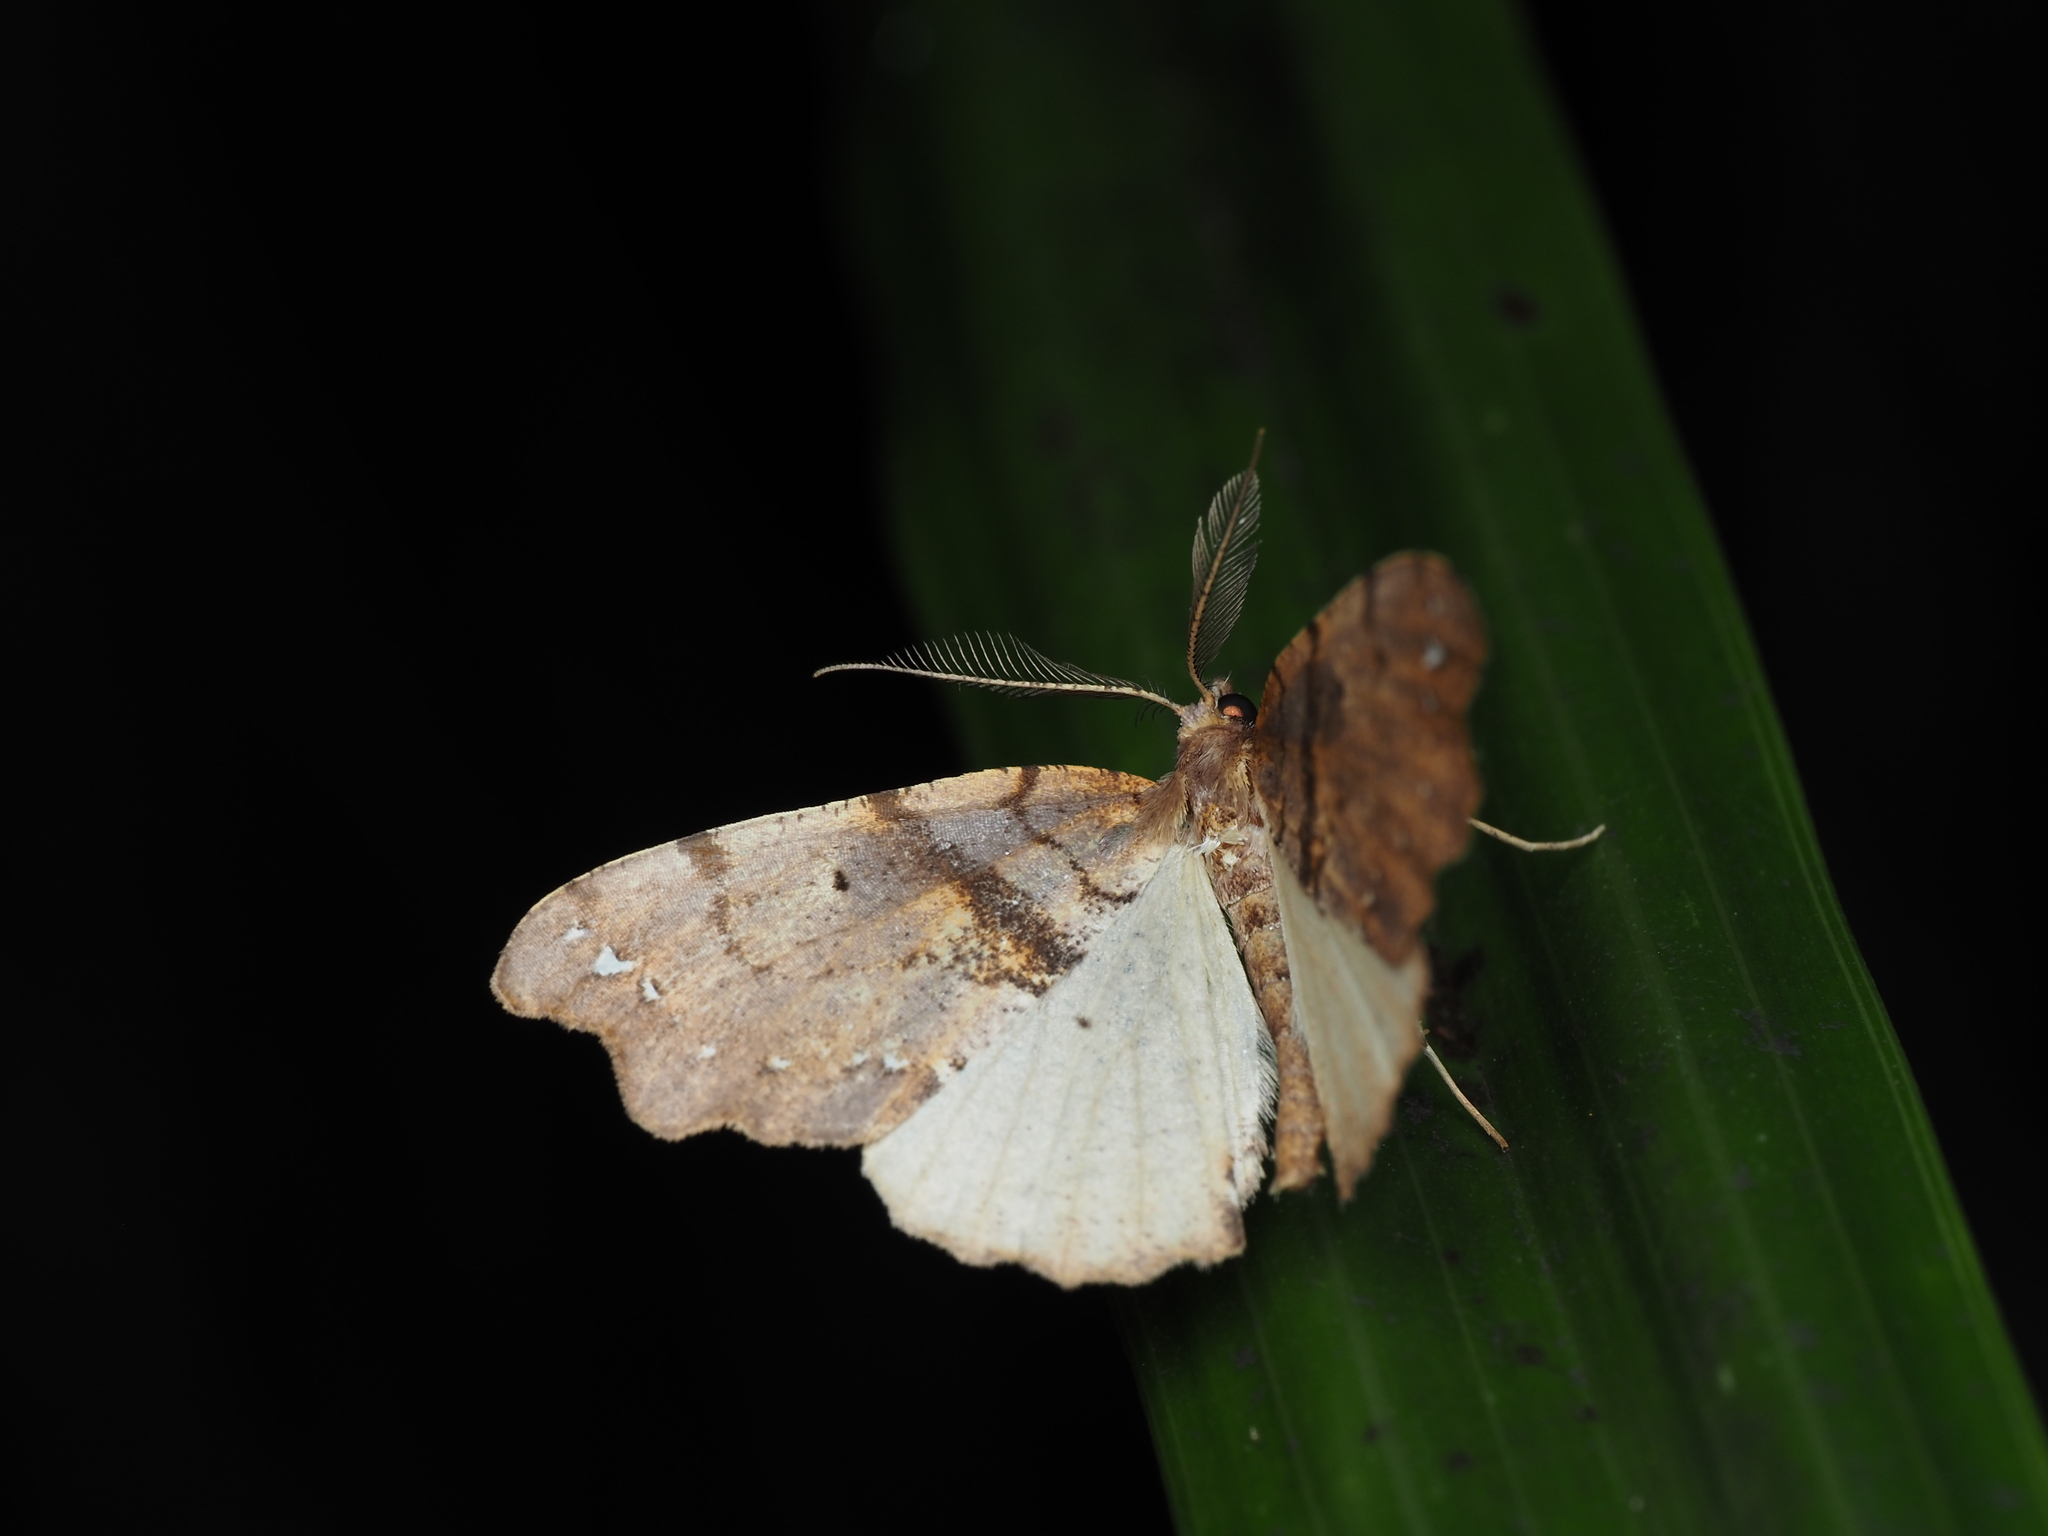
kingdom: Animalia
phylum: Arthropoda
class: Insecta
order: Lepidoptera
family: Geometridae
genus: Chalastra
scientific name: Chalastra pellurgata
